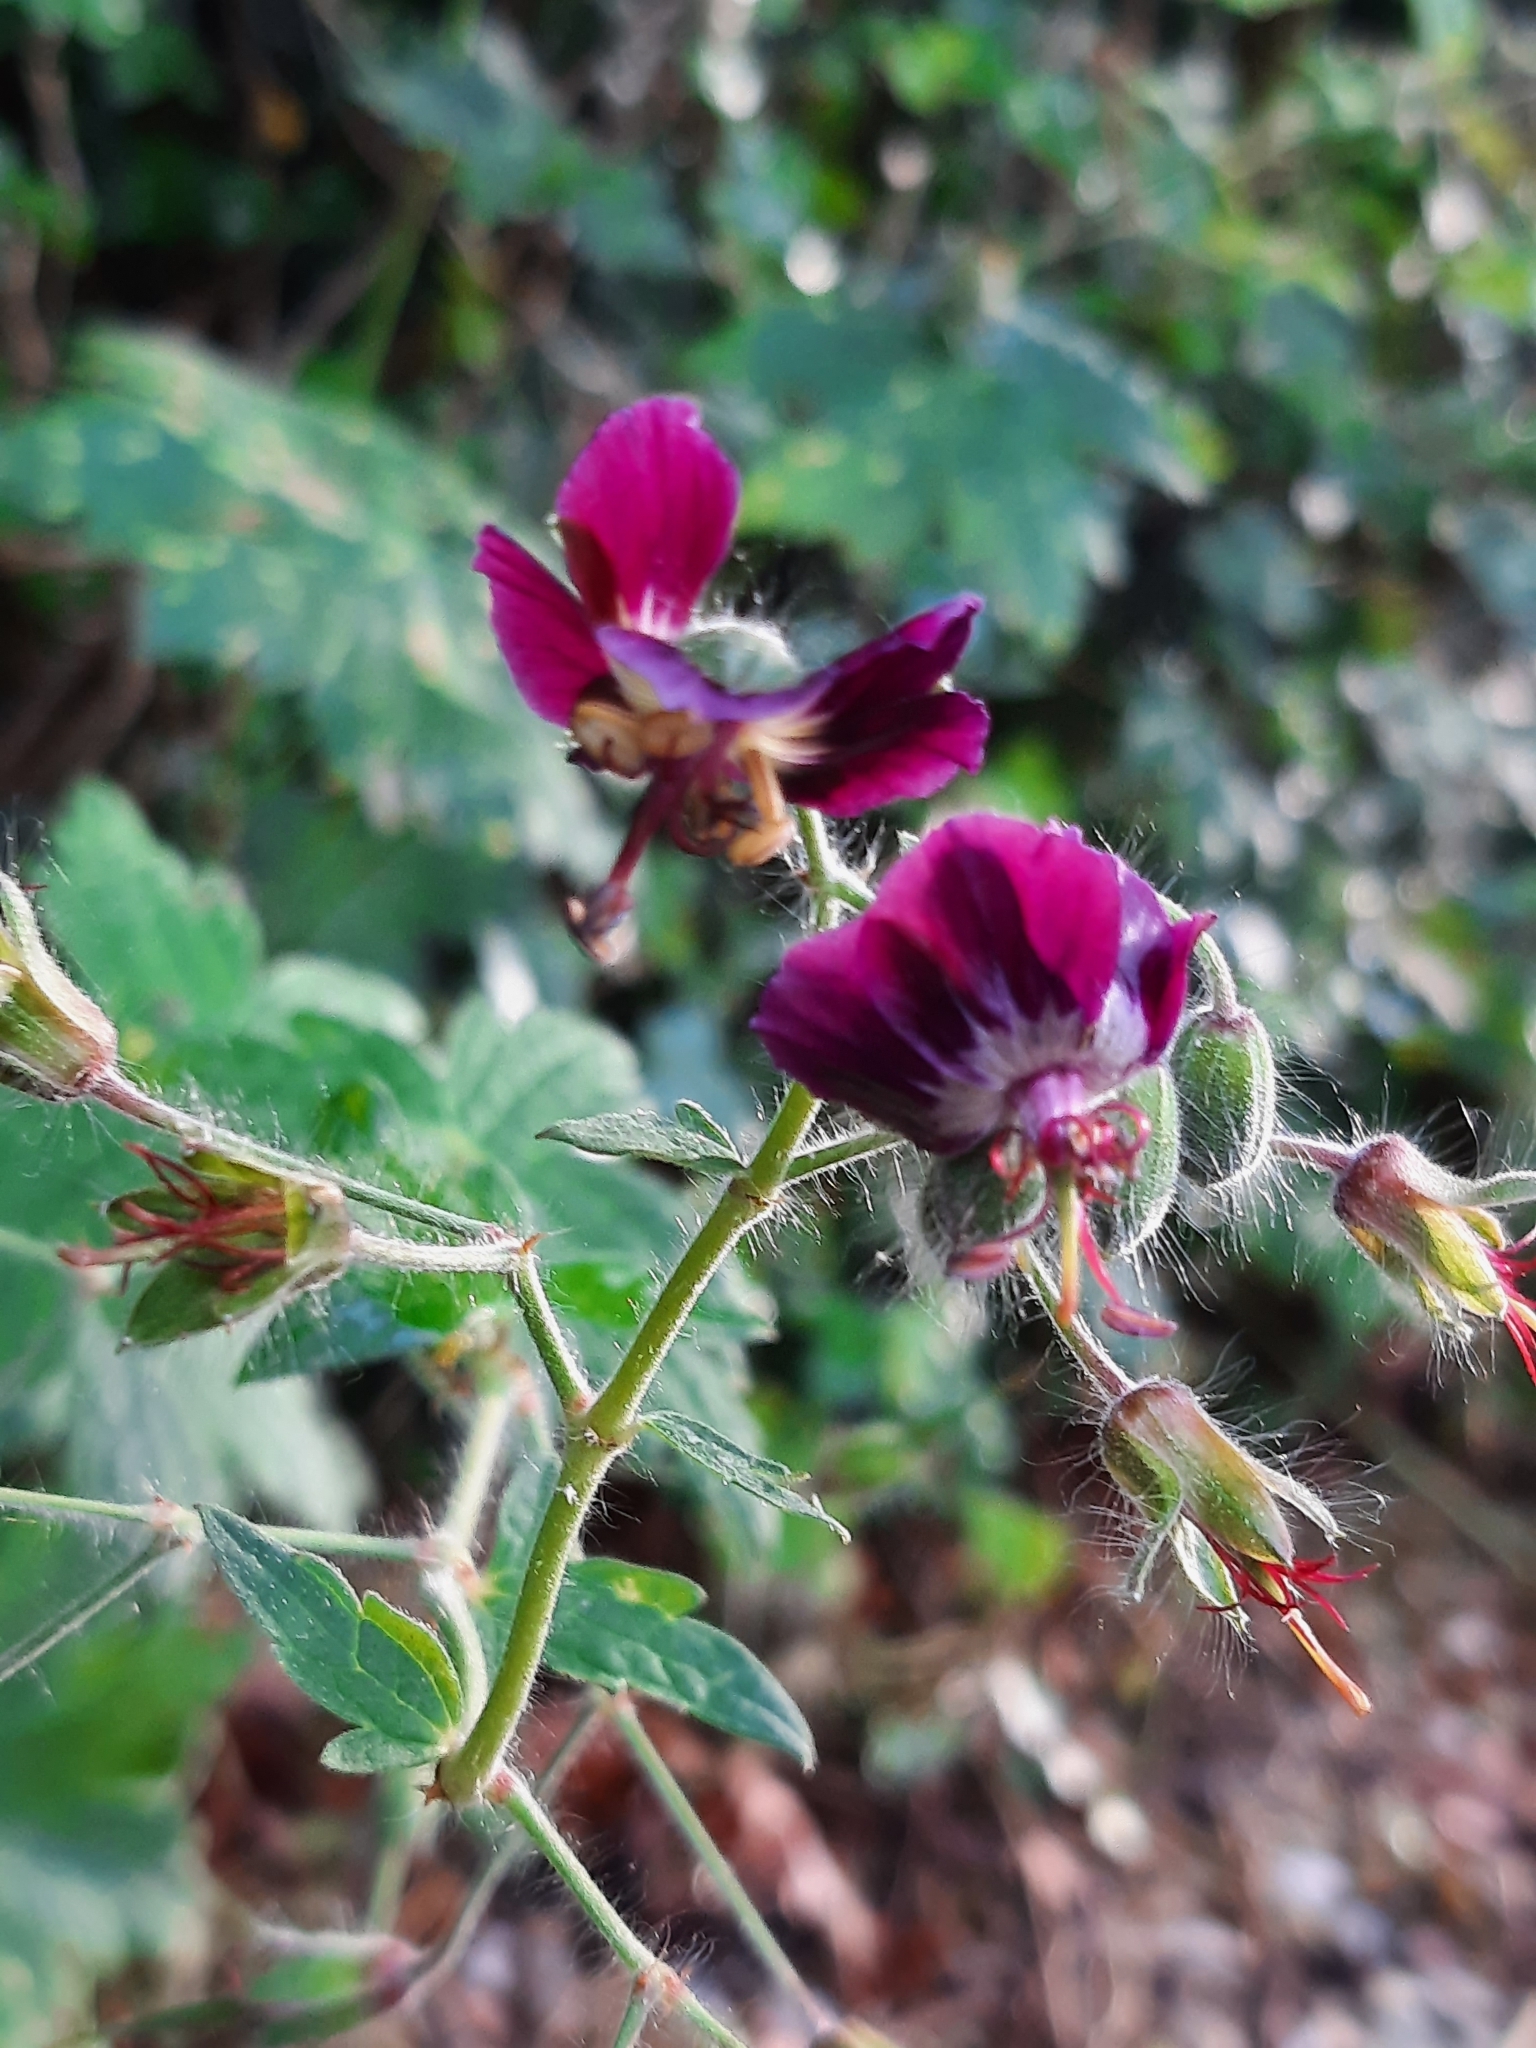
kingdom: Plantae
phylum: Tracheophyta
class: Magnoliopsida
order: Geraniales
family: Geraniaceae
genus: Geranium
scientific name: Geranium phaeum
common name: Dusky crane's-bill
